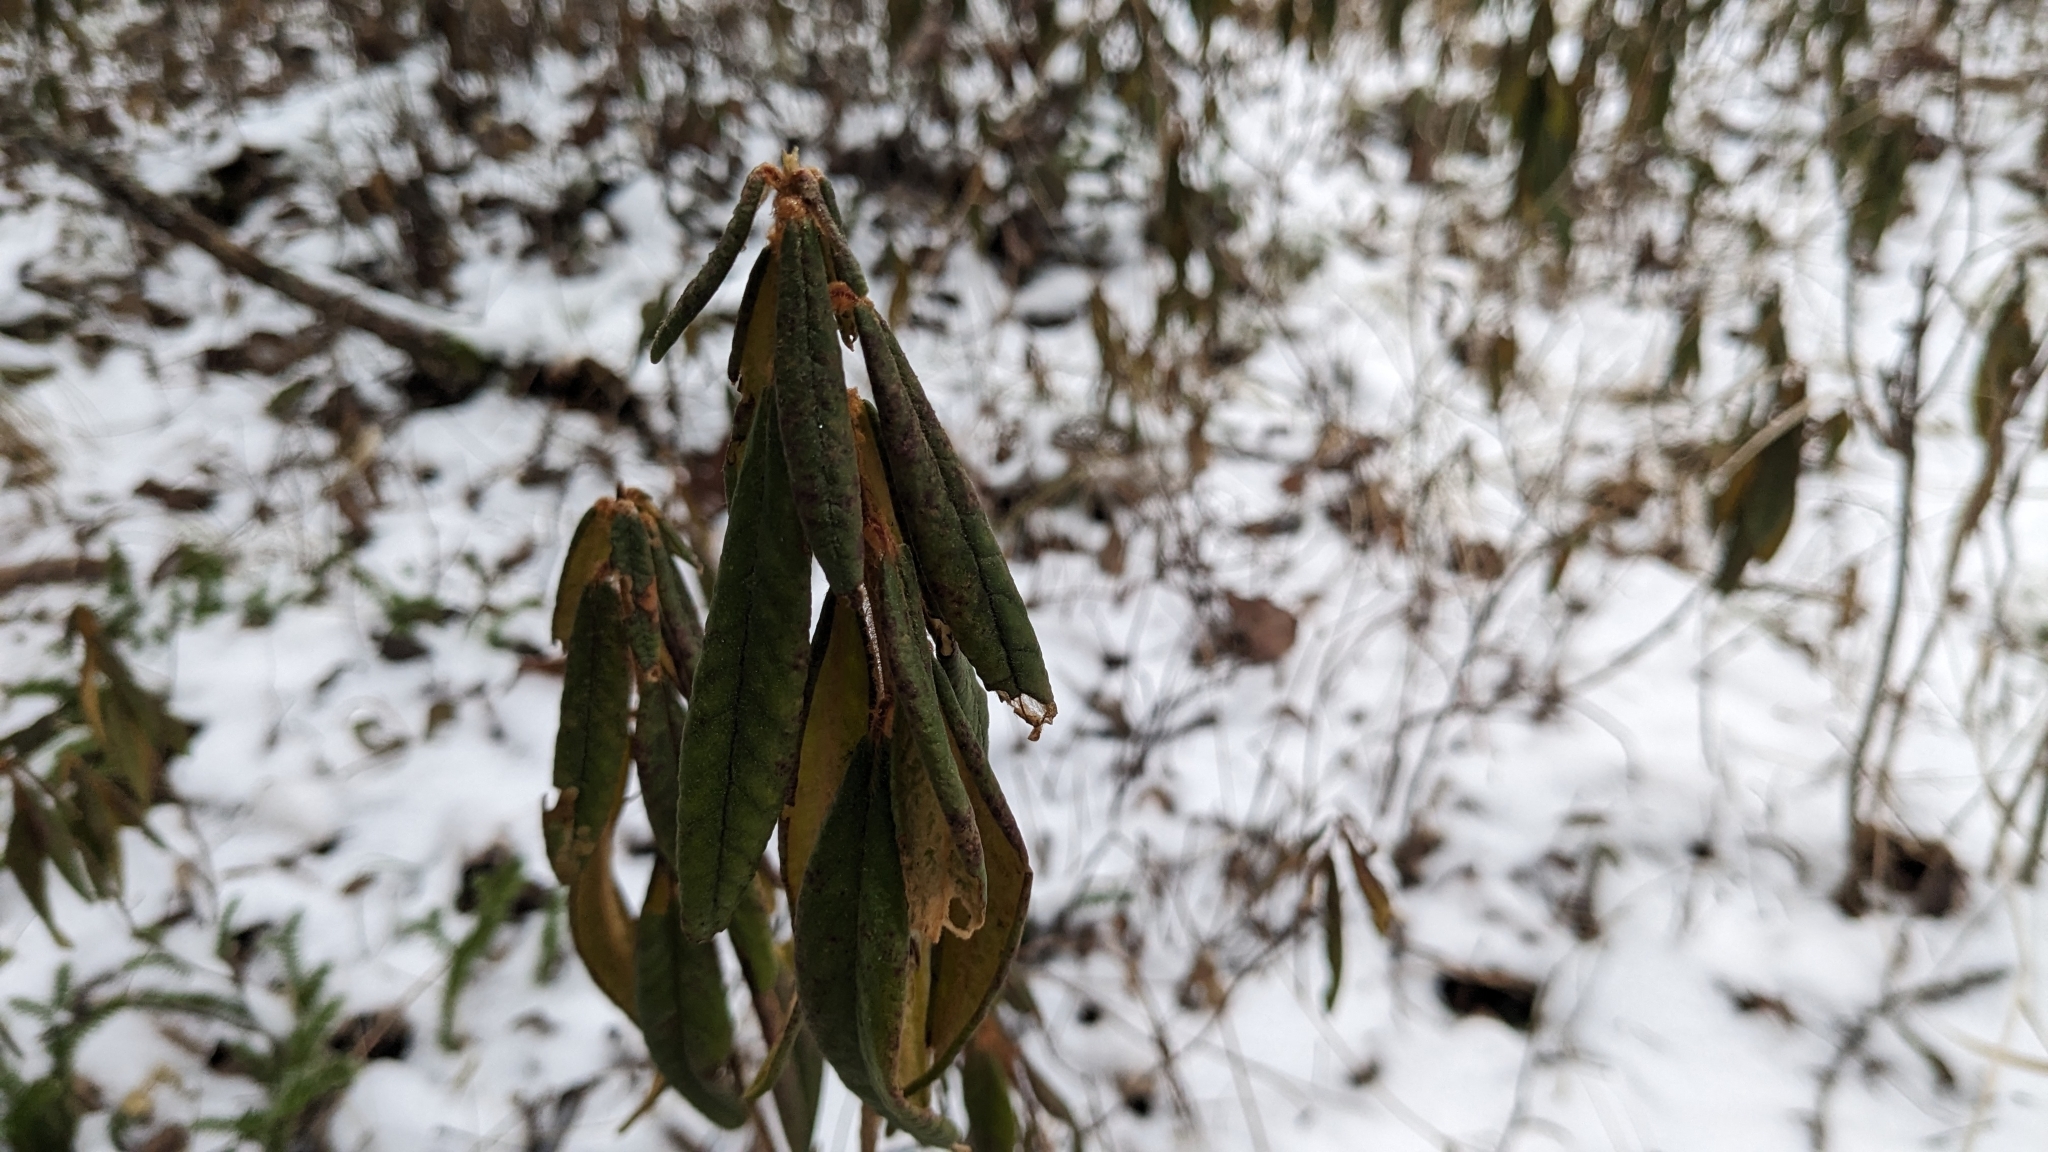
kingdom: Plantae
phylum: Tracheophyta
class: Magnoliopsida
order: Ericales
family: Ericaceae
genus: Rhododendron
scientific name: Rhododendron groenlandicum
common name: Bog labrador tea
